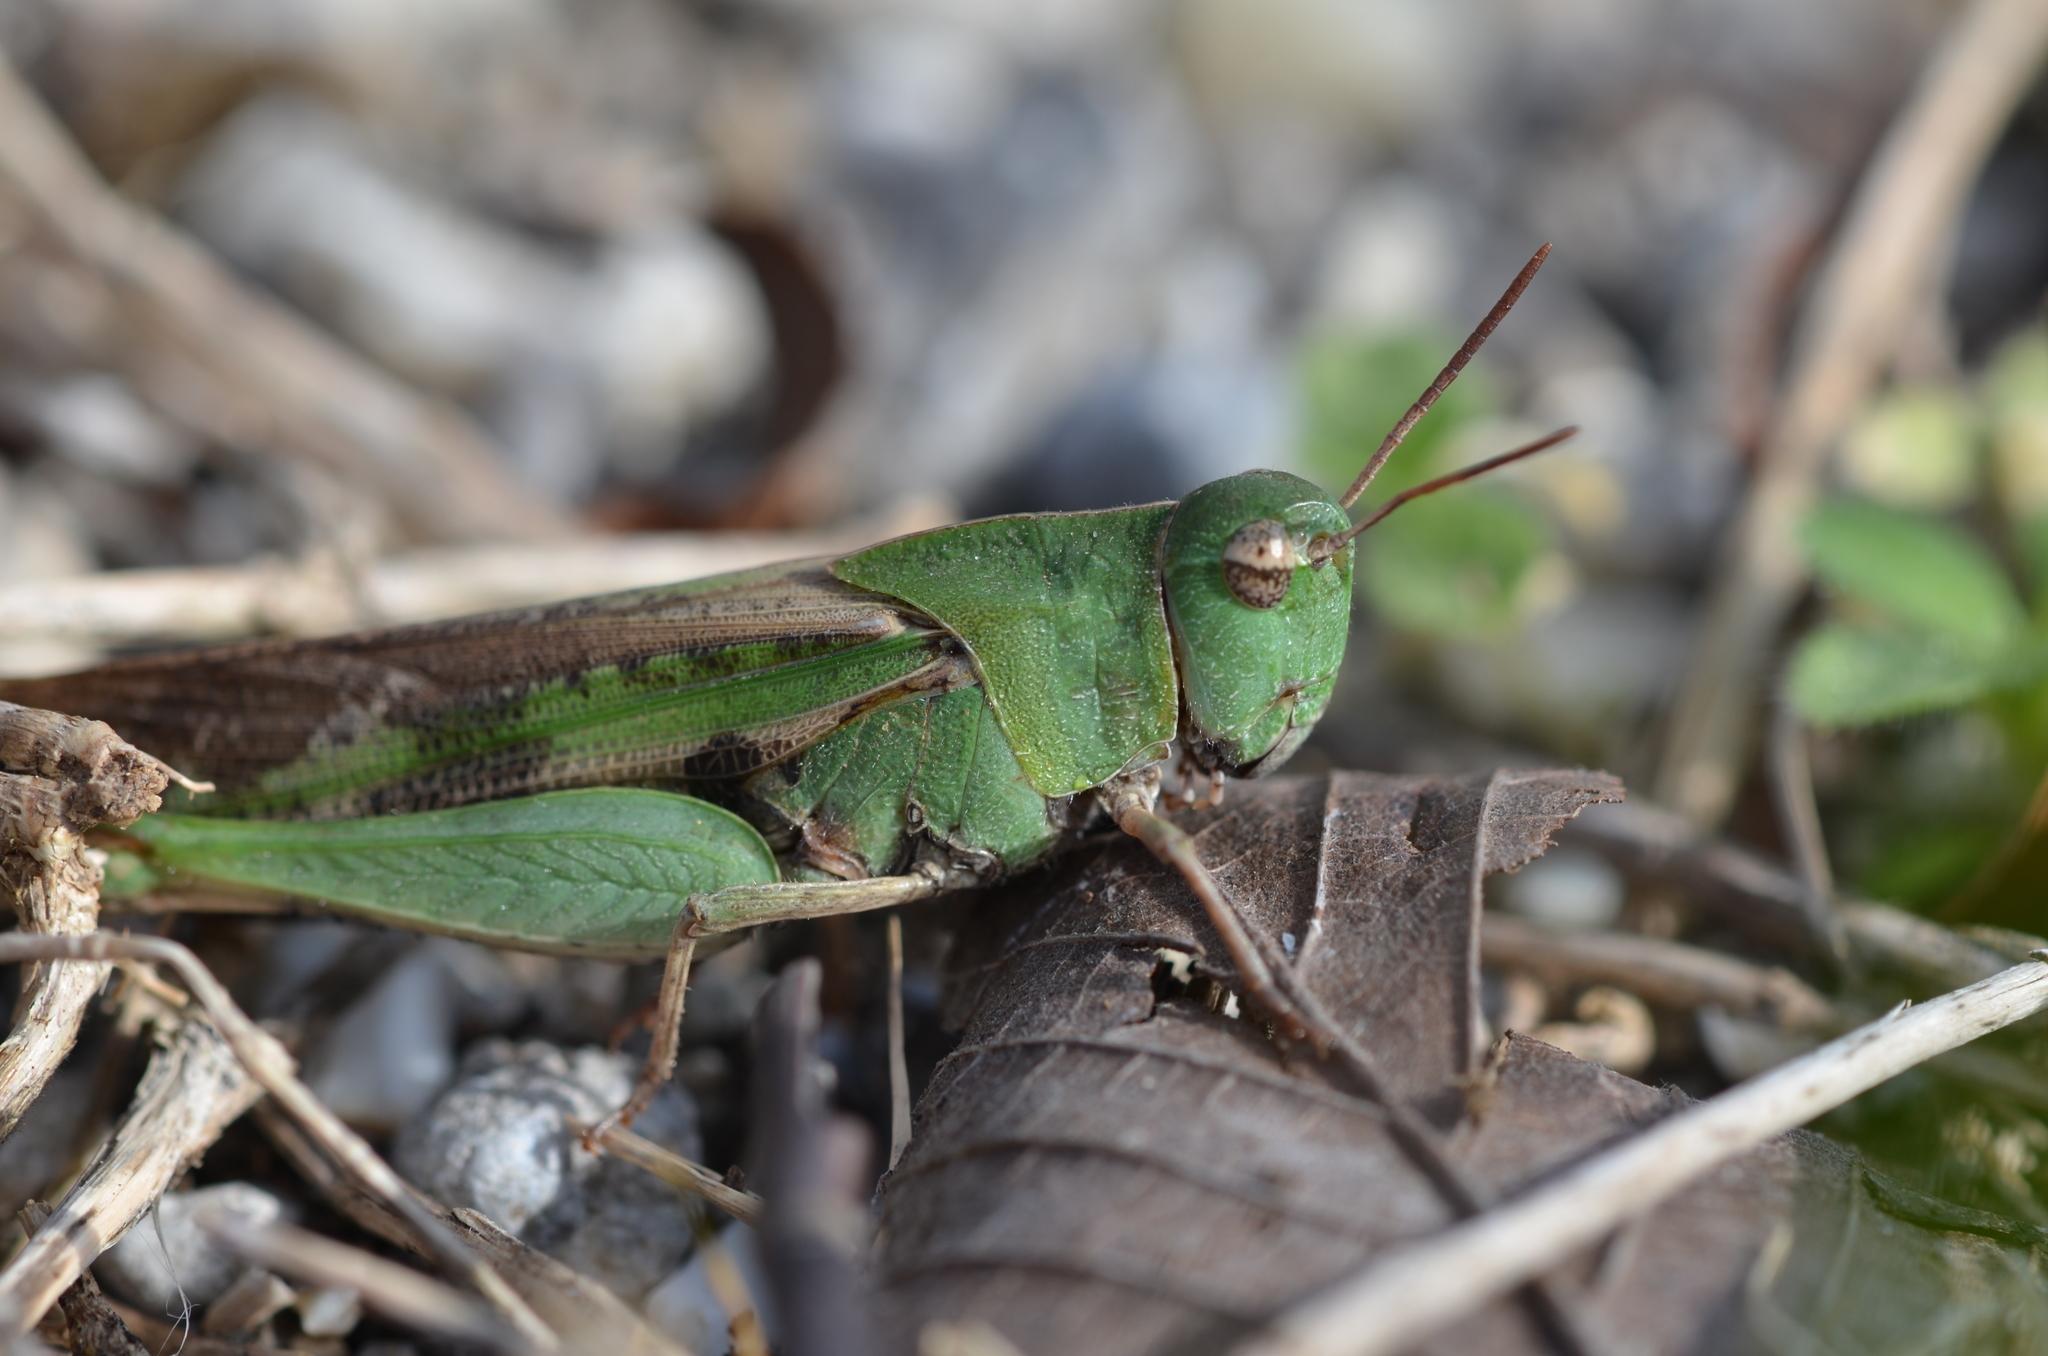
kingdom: Animalia
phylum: Arthropoda
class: Insecta
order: Orthoptera
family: Acrididae
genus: Chortophaga
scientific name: Chortophaga viridifasciata
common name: Green-striped grasshopper
